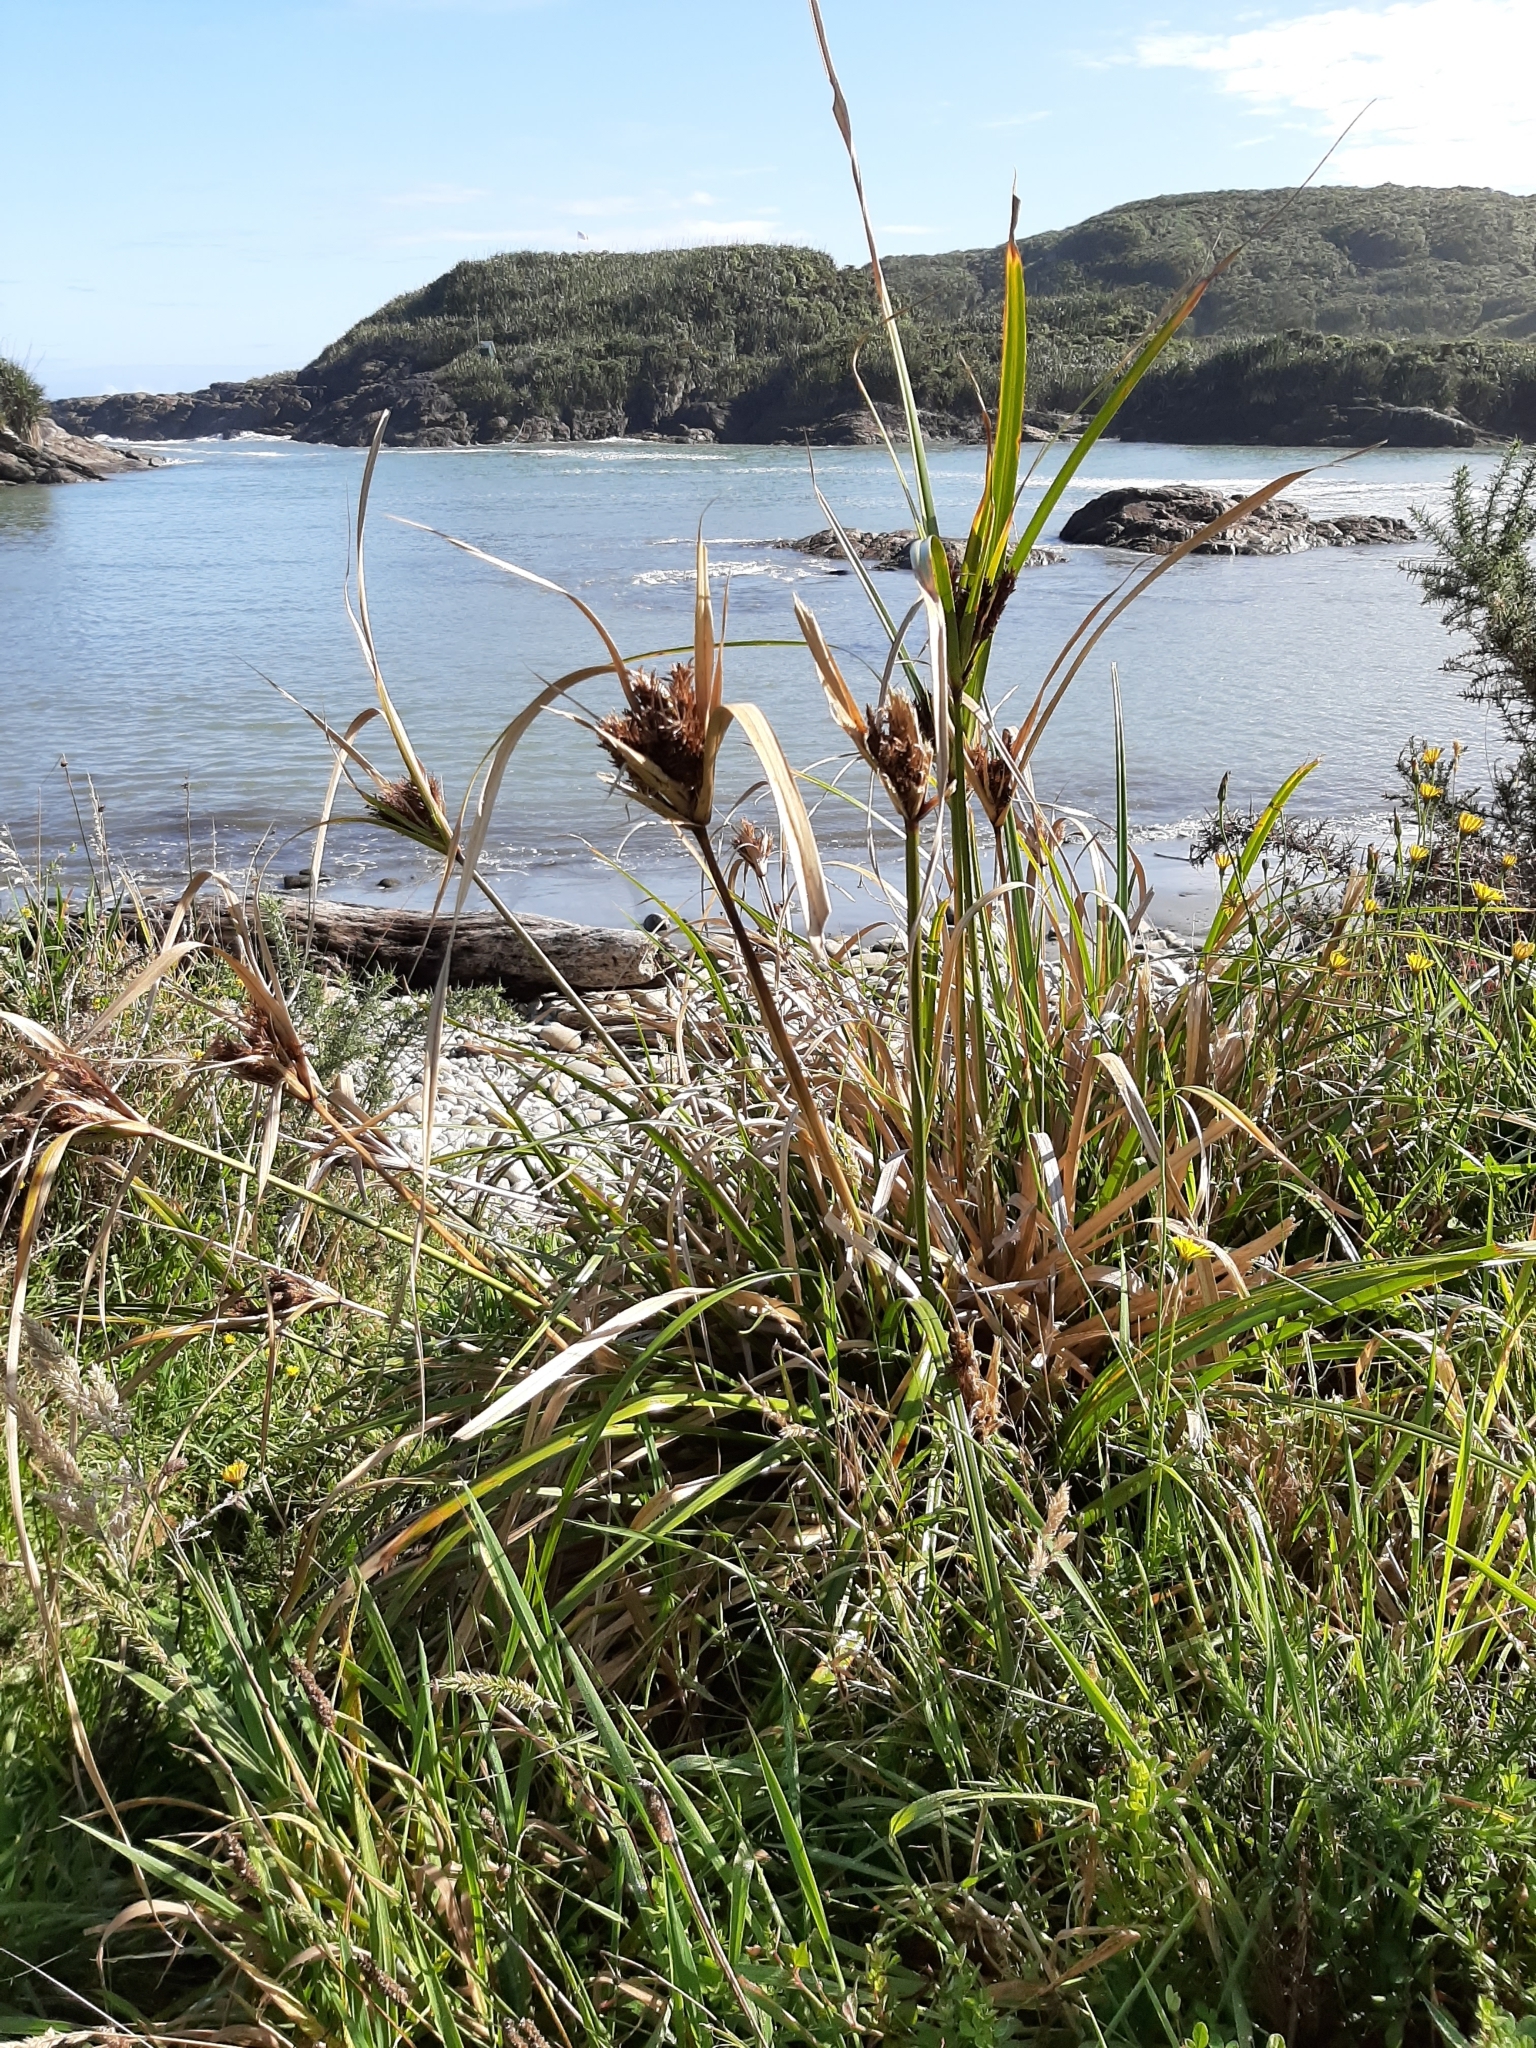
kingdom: Plantae
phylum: Tracheophyta
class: Liliopsida
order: Poales
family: Cyperaceae
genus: Cyperus
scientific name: Cyperus ustulatus
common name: Giant umbrella-sedge
